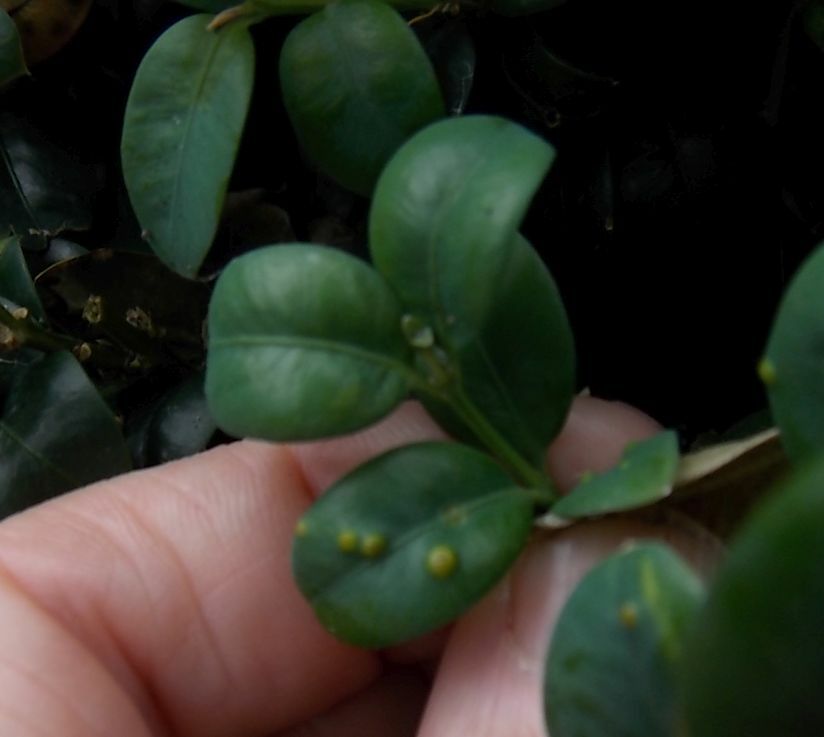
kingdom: Fungi
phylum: Basidiomycota
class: Pucciniomycetes
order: Pucciniales
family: Pucciniaceae
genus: Puccinia
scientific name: Puccinia buxi
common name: Box rust
